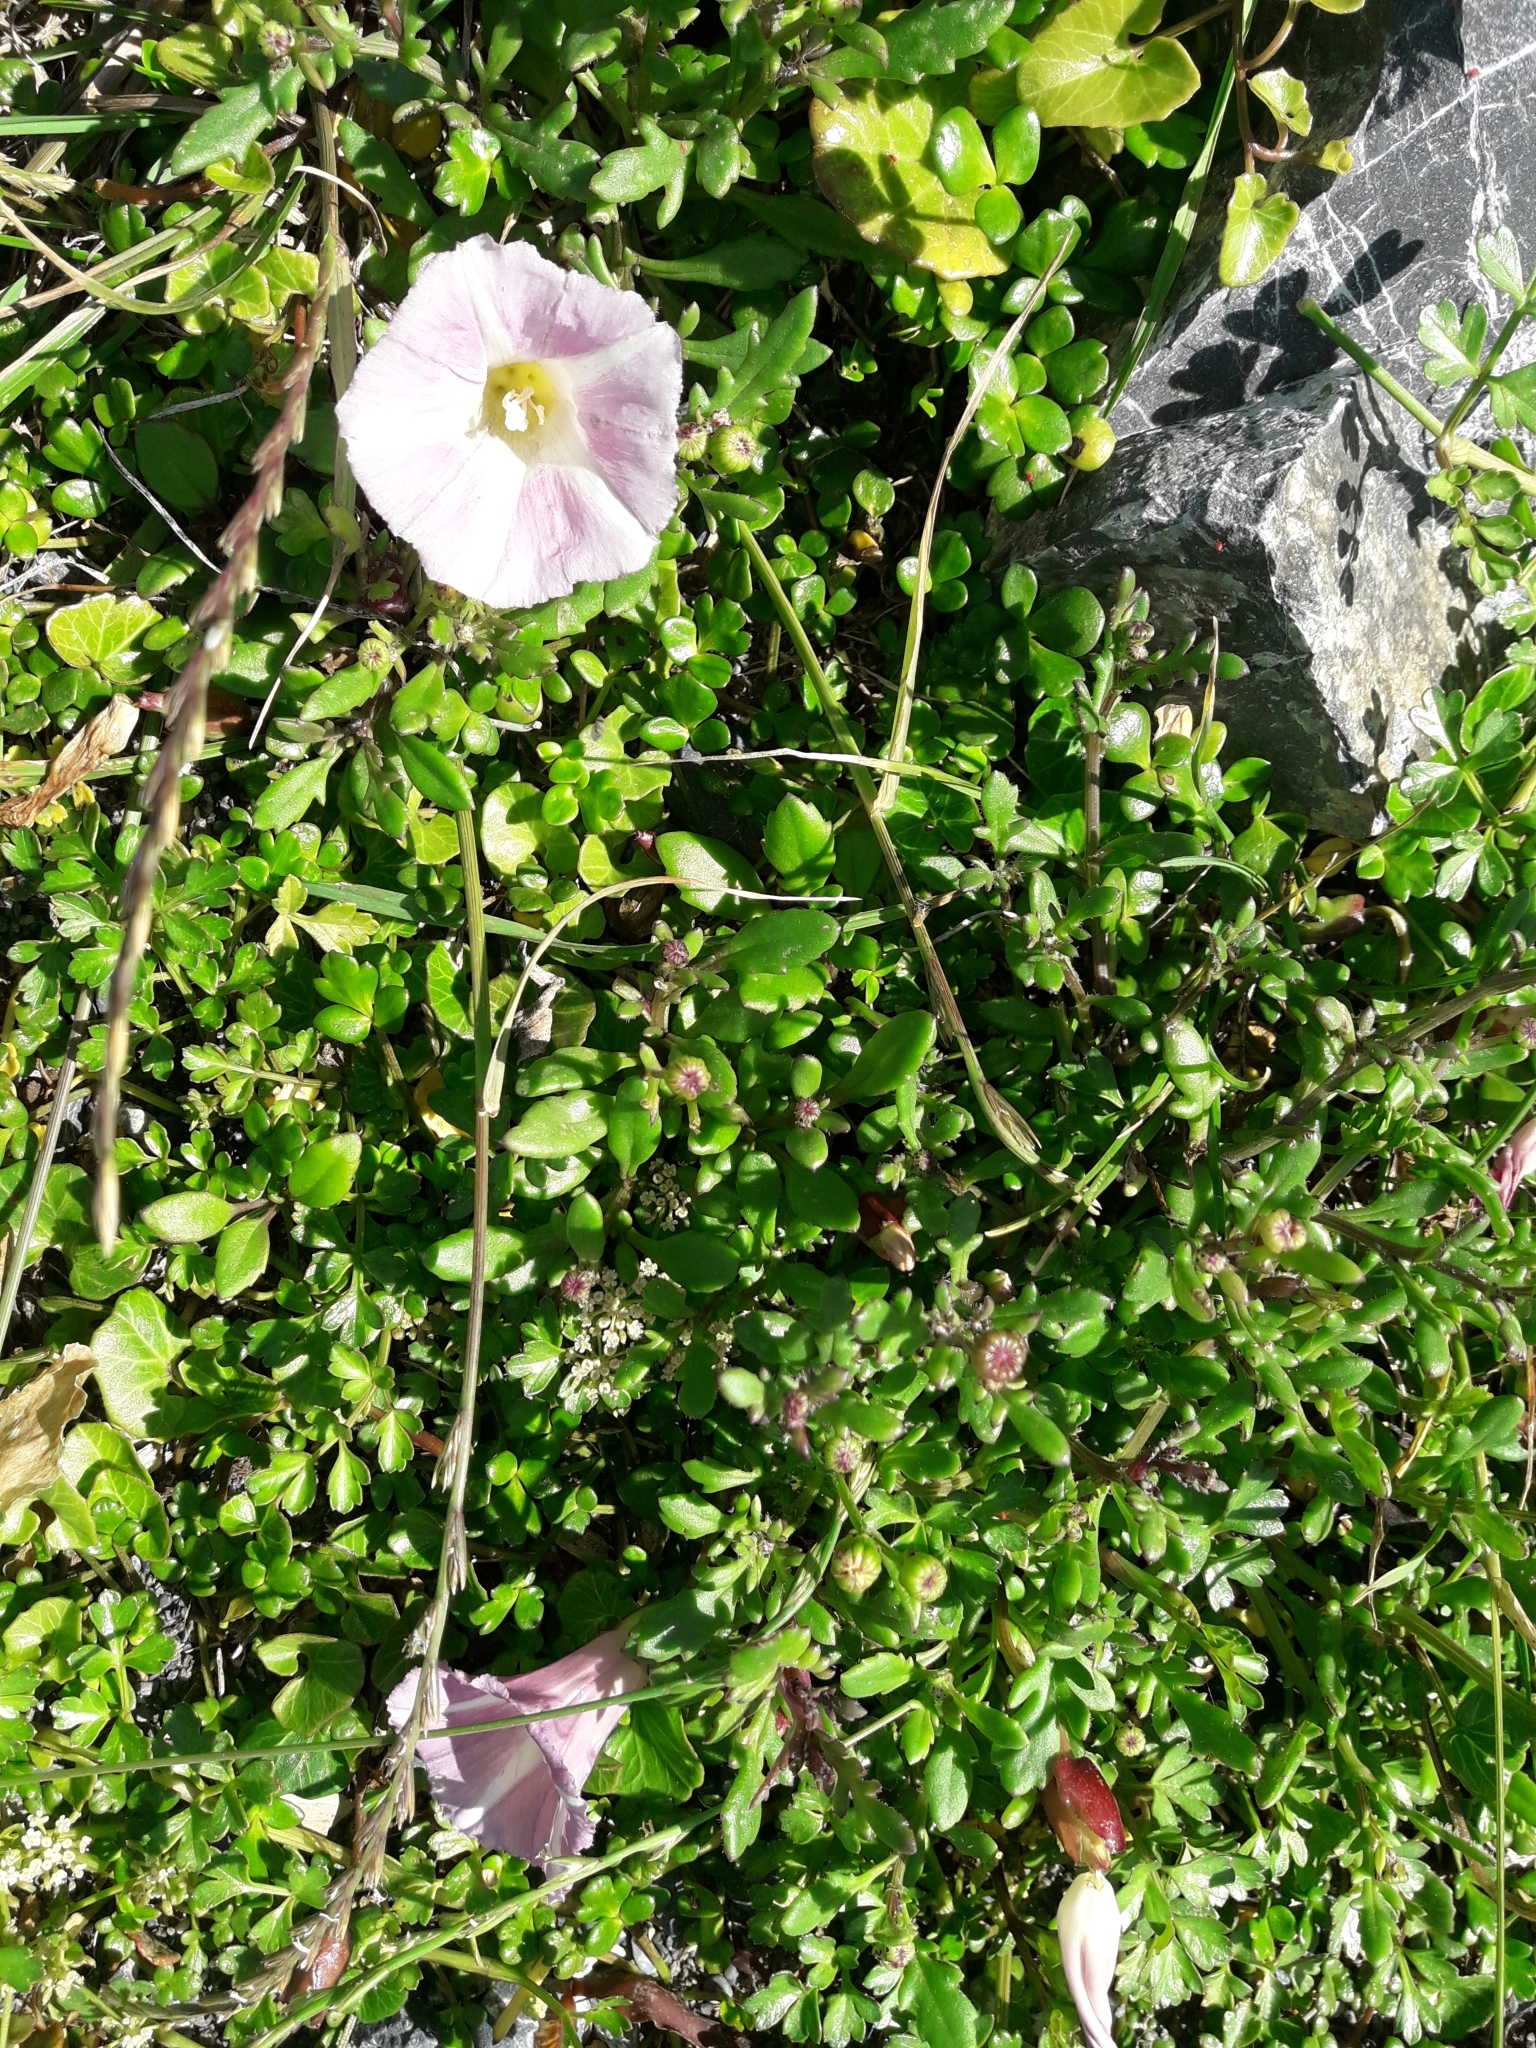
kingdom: Plantae
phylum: Tracheophyta
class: Magnoliopsida
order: Solanales
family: Convolvulaceae
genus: Calystegia
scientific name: Calystegia soldanella
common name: Sea bindweed
